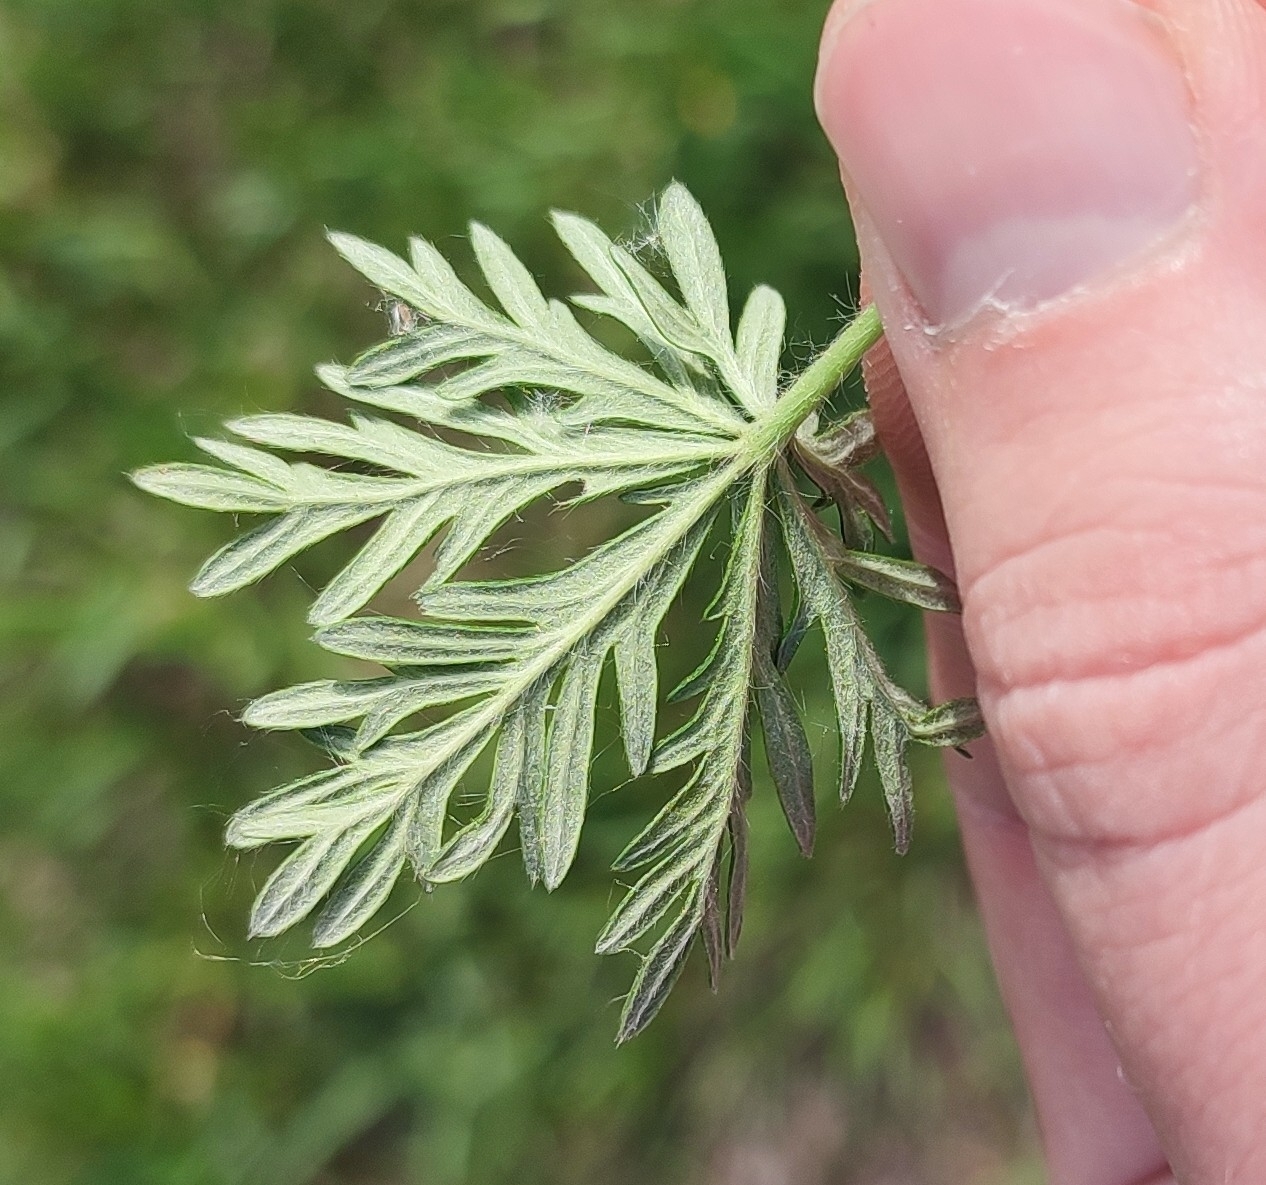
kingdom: Plantae
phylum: Tracheophyta
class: Magnoliopsida
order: Rosales
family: Rosaceae
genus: Potentilla
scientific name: Potentilla angarensis
